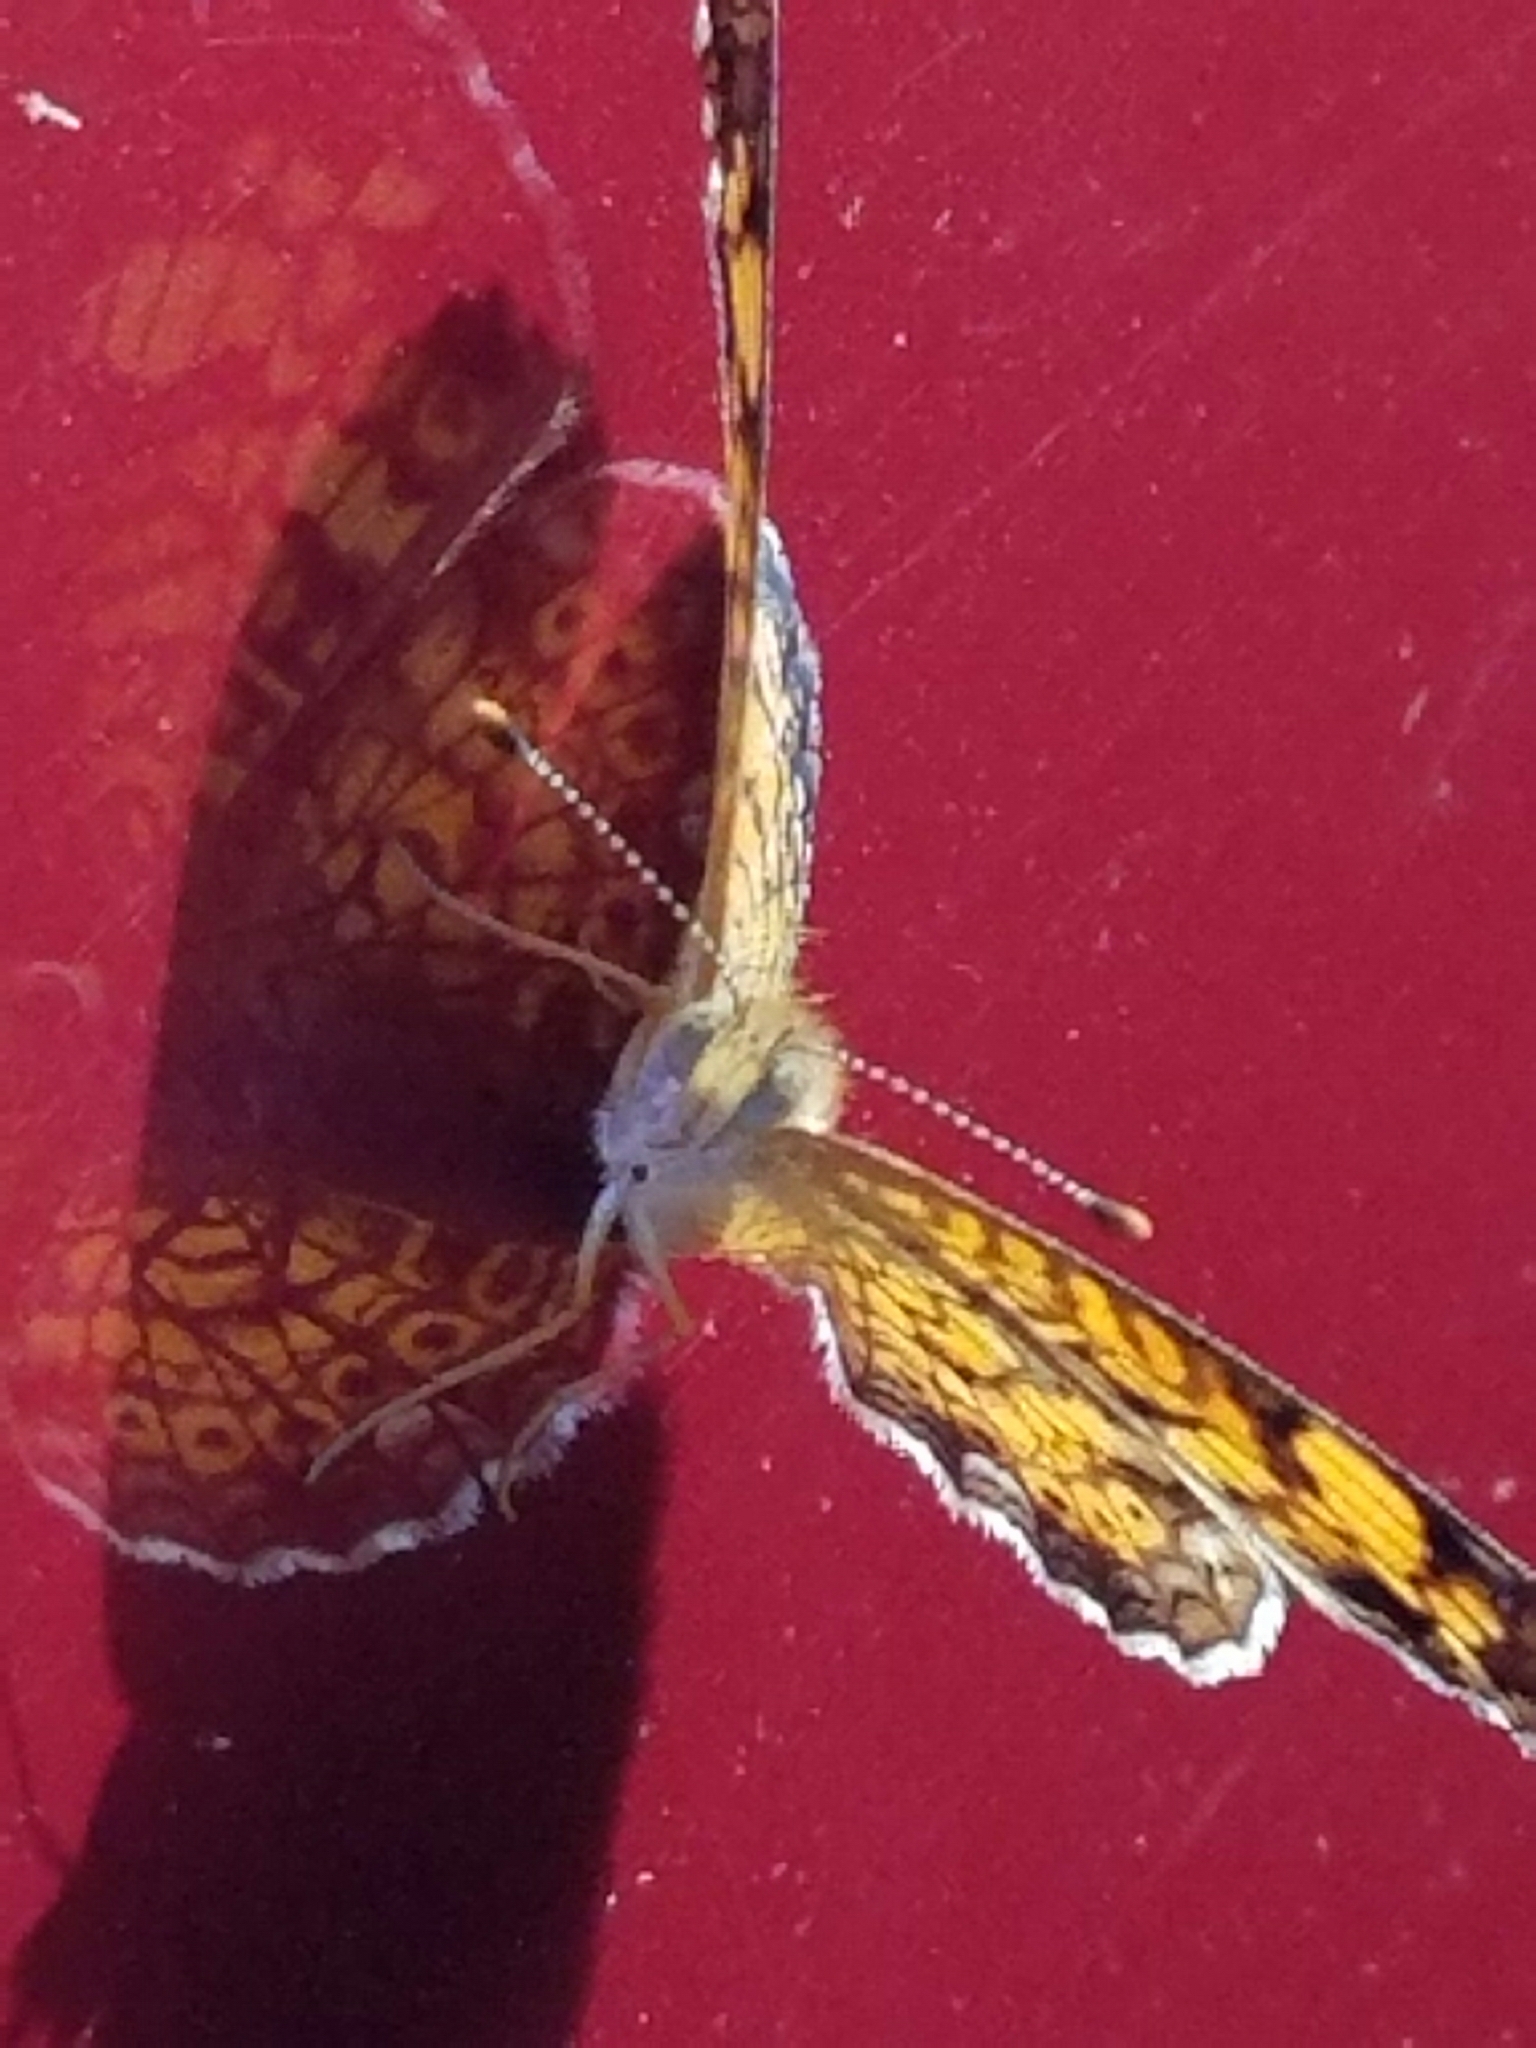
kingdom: Animalia
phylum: Arthropoda
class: Insecta
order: Lepidoptera
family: Nymphalidae
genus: Phyciodes
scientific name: Phyciodes tharos
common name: Pearl crescent
